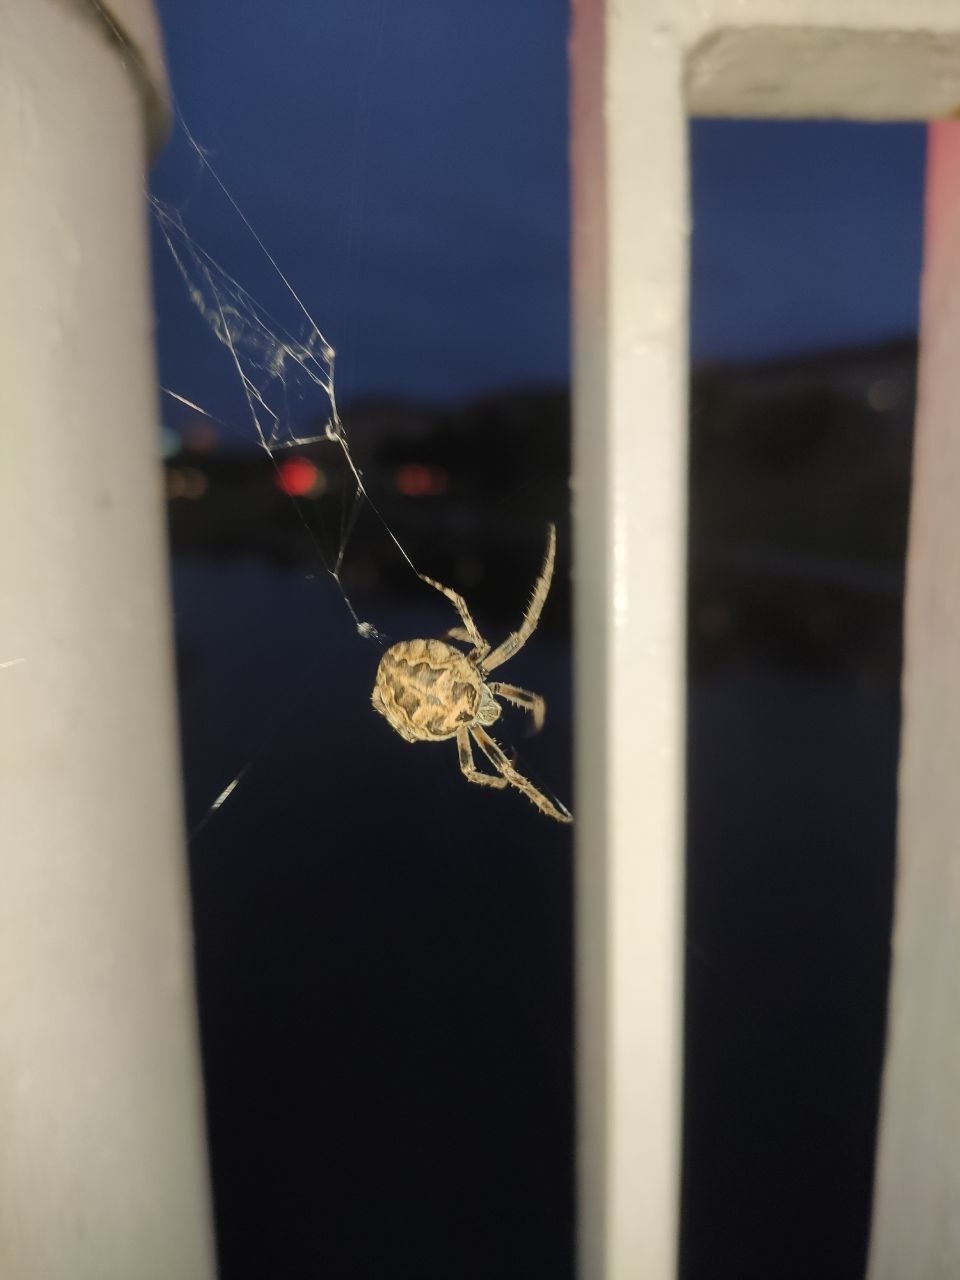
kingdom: Animalia
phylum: Arthropoda
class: Arachnida
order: Araneae
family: Araneidae
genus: Larinioides
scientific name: Larinioides sclopetarius
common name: Bridge orbweaver
